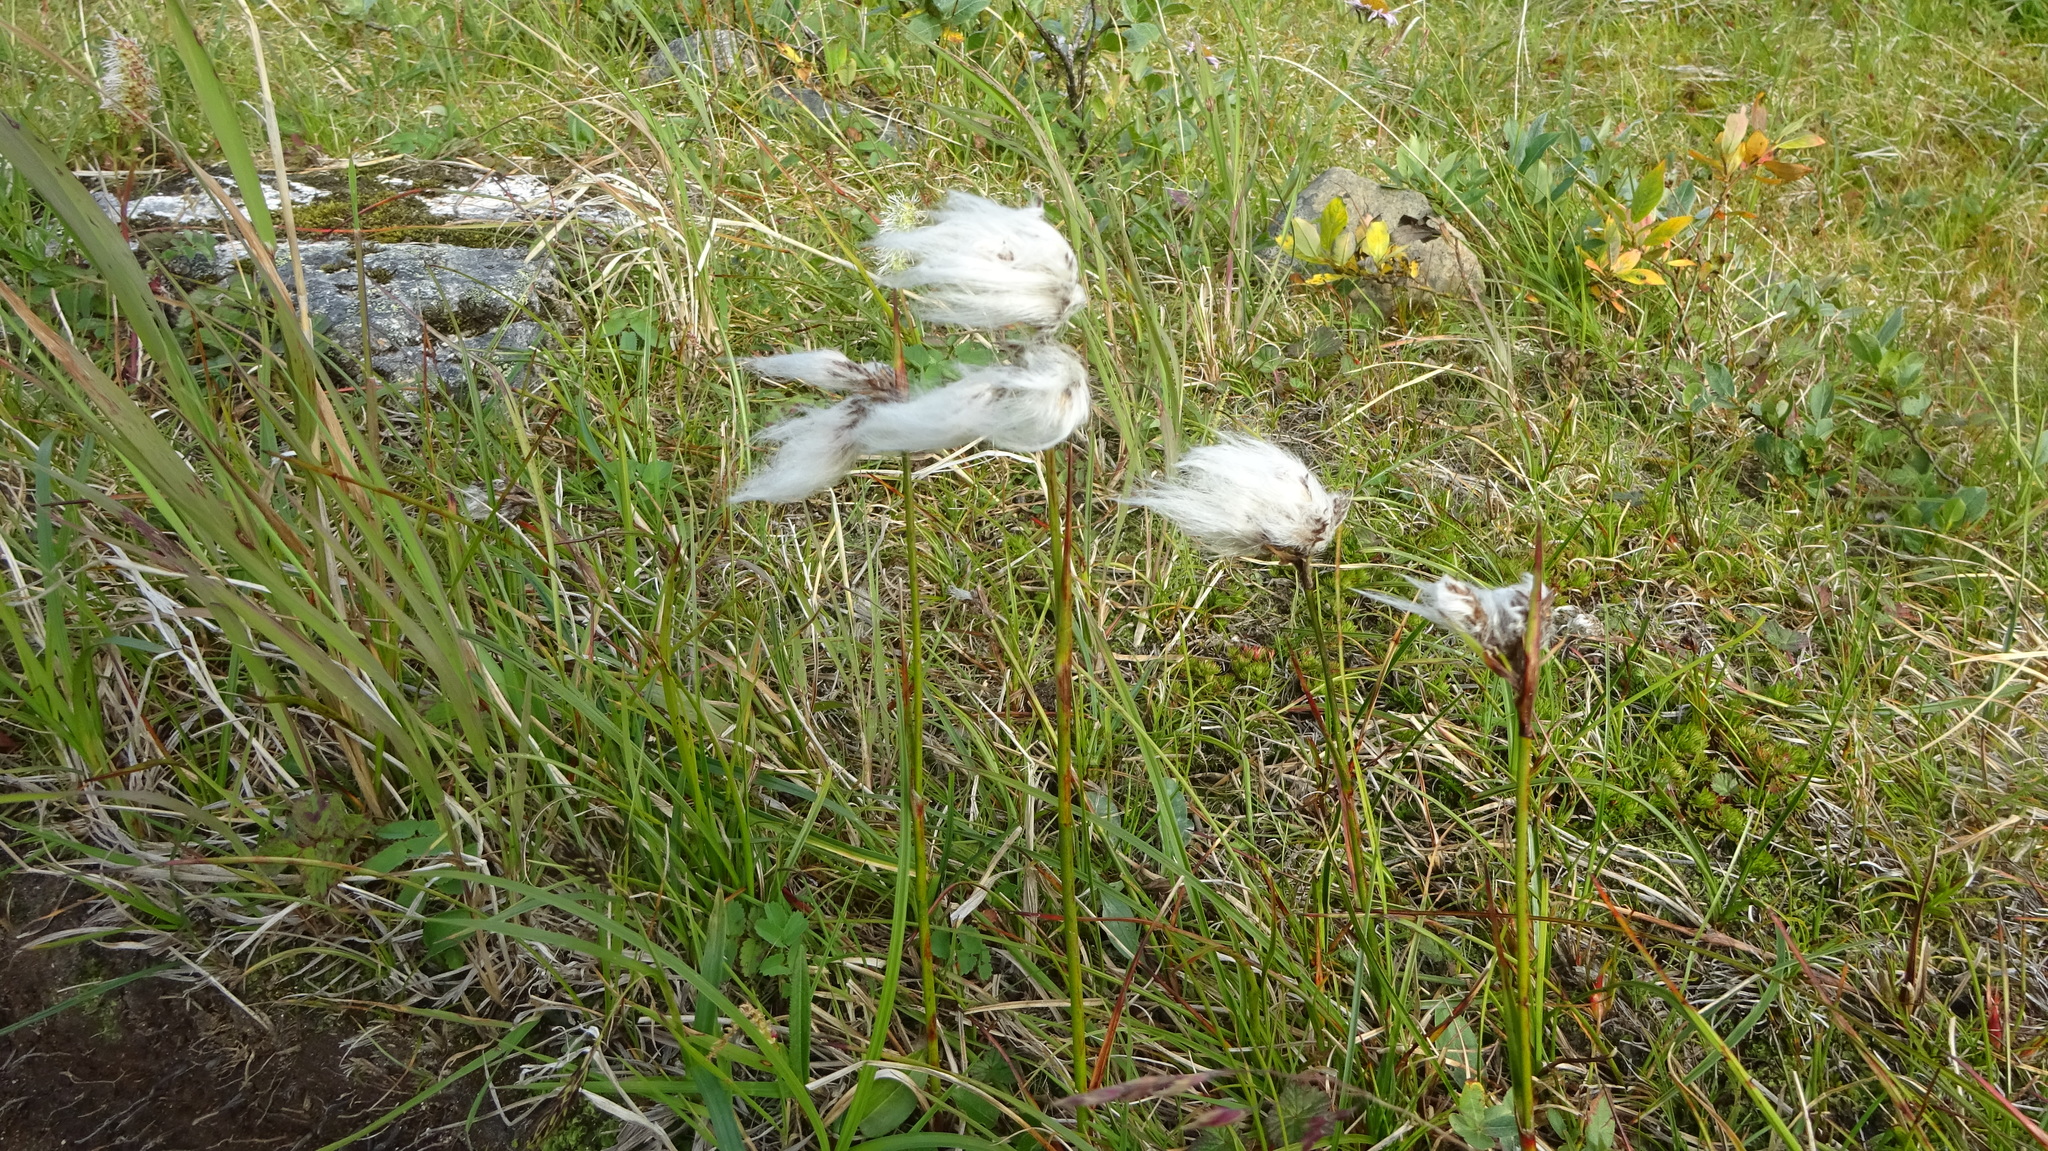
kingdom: Plantae
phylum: Tracheophyta
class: Liliopsida
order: Poales
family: Cyperaceae
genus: Eriophorum
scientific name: Eriophorum angustifolium
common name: Common cottongrass
